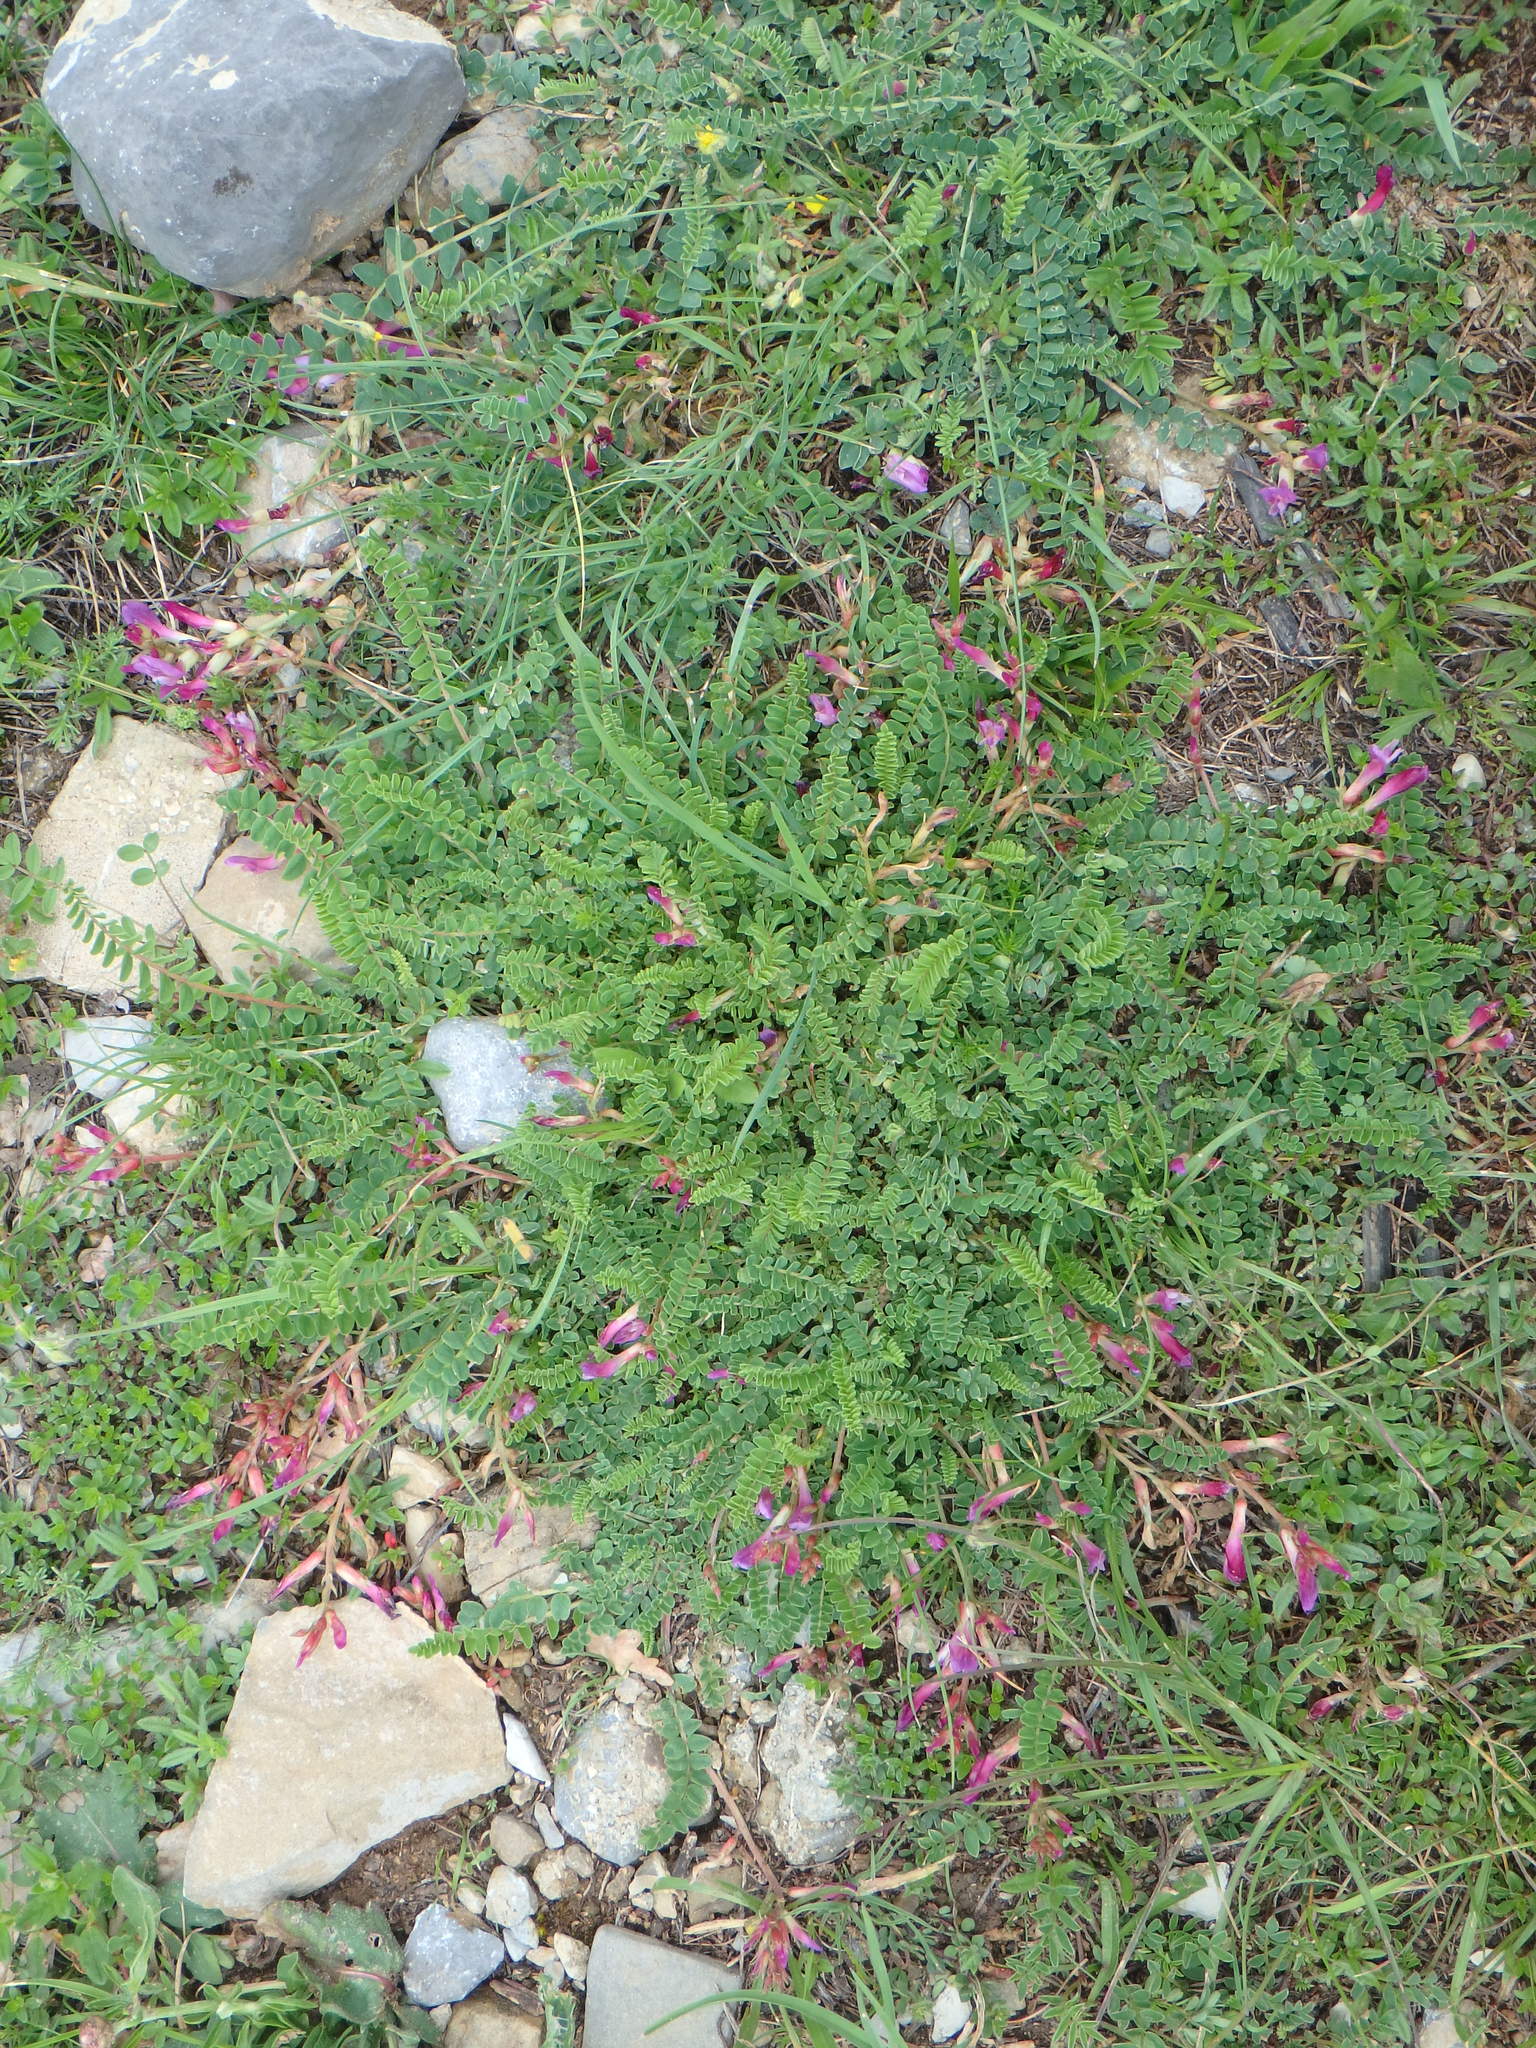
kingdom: Plantae
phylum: Tracheophyta
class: Magnoliopsida
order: Fabales
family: Fabaceae
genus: Astragalus
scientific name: Astragalus monspessulanus
